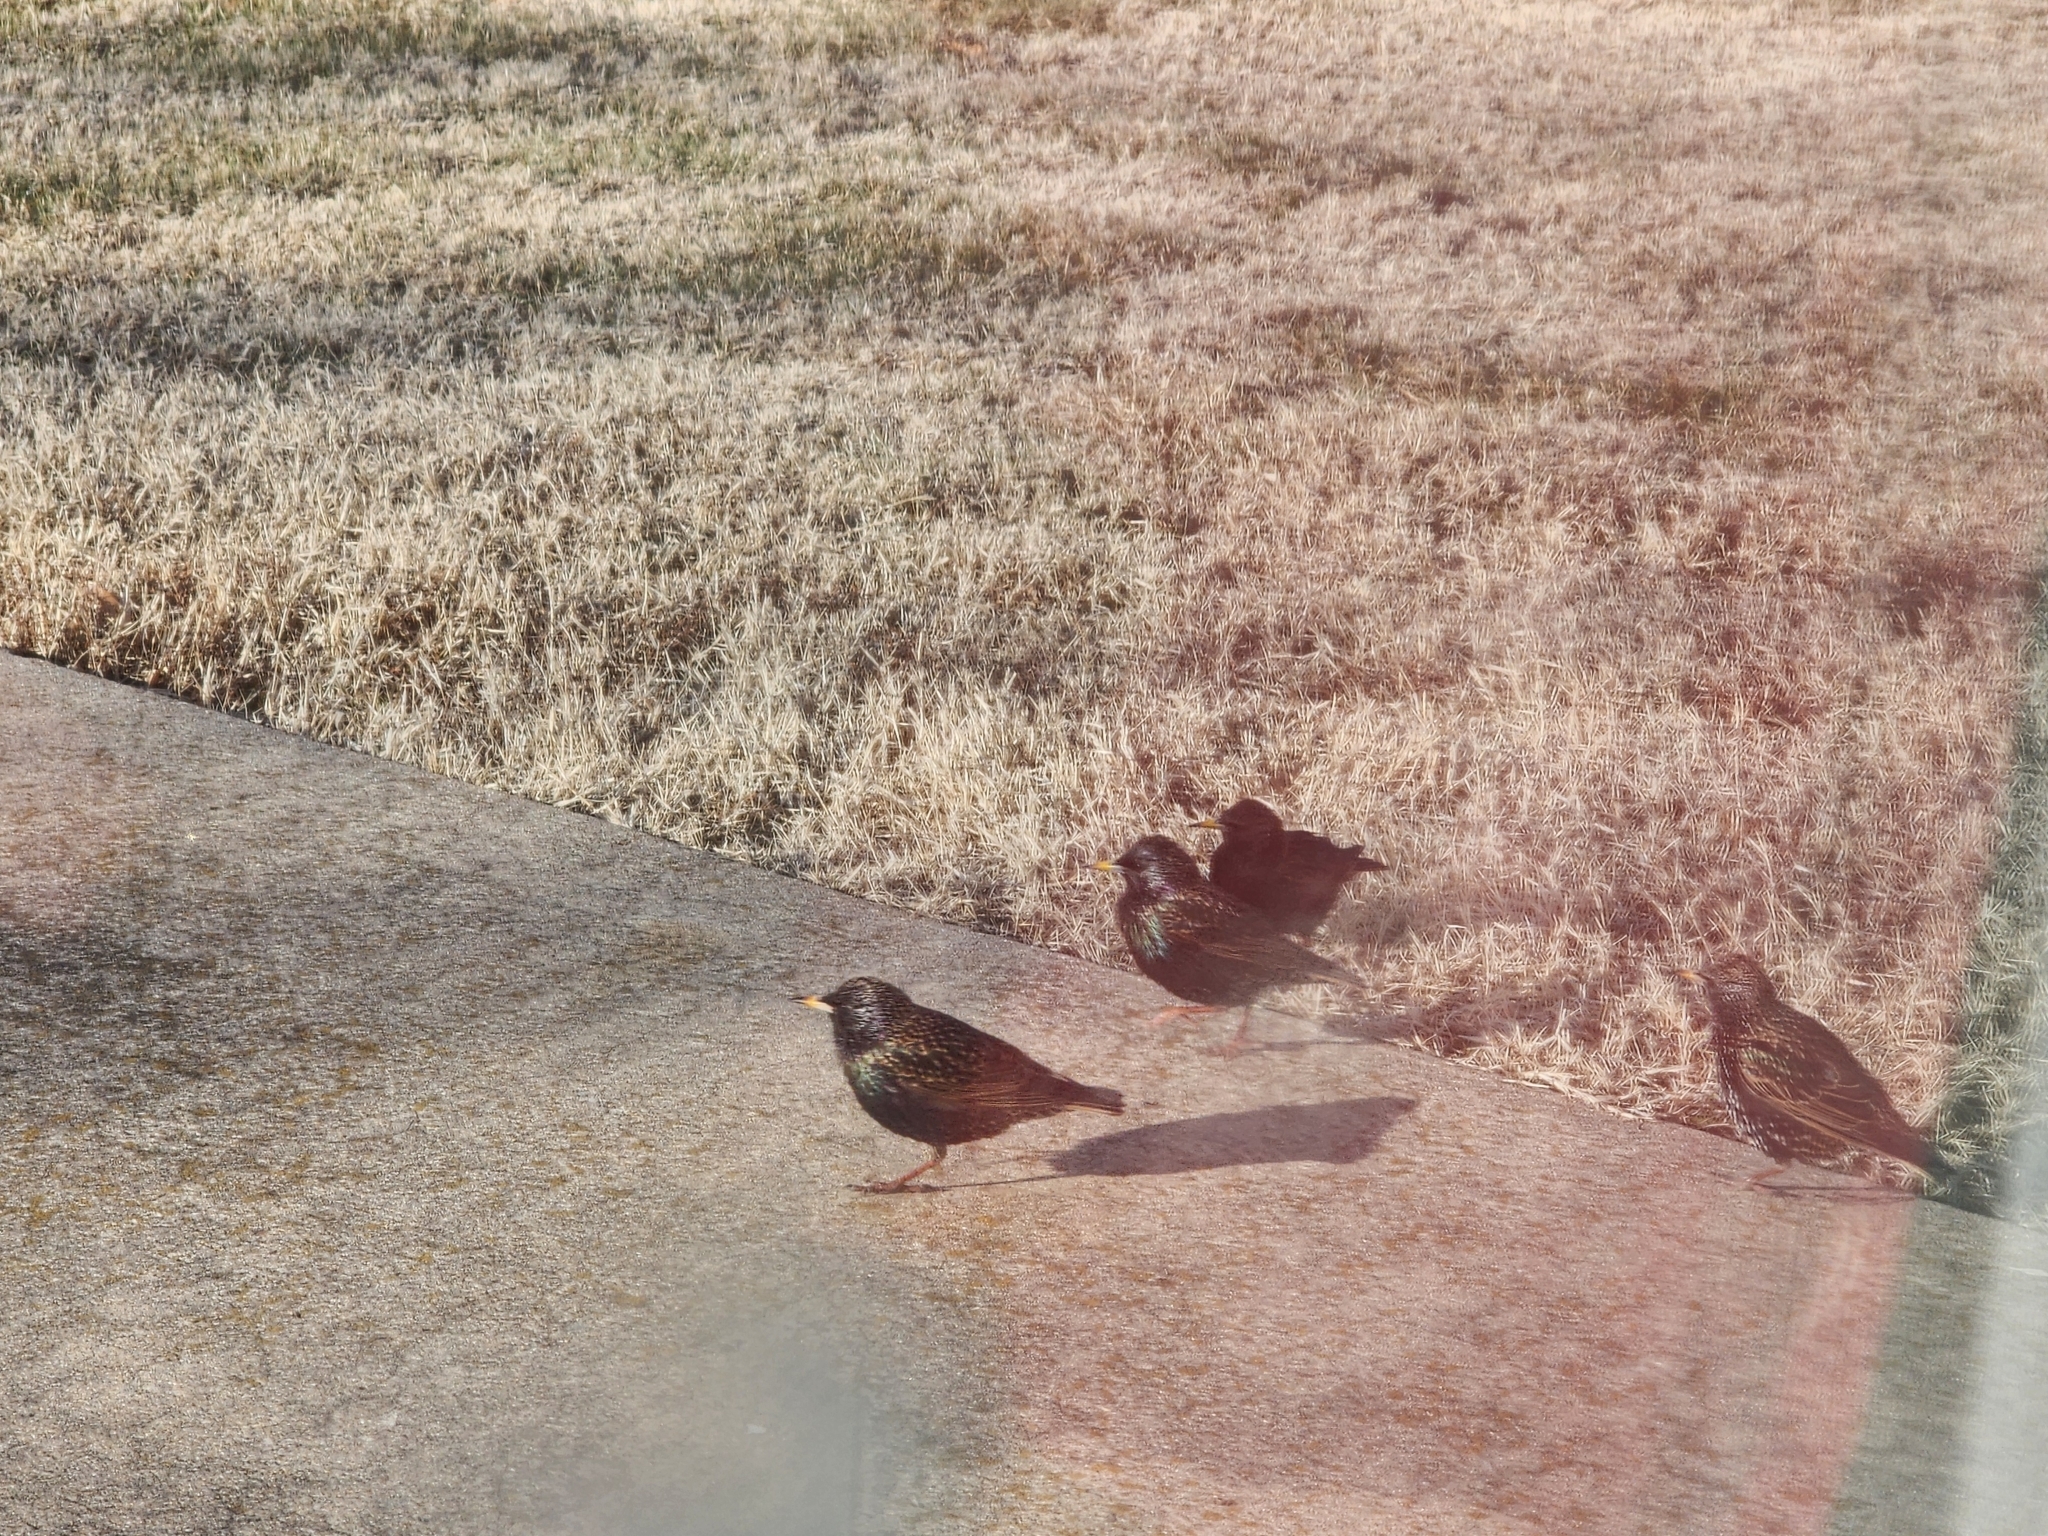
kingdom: Animalia
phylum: Chordata
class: Aves
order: Passeriformes
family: Sturnidae
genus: Sturnus
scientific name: Sturnus vulgaris
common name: Common starling
